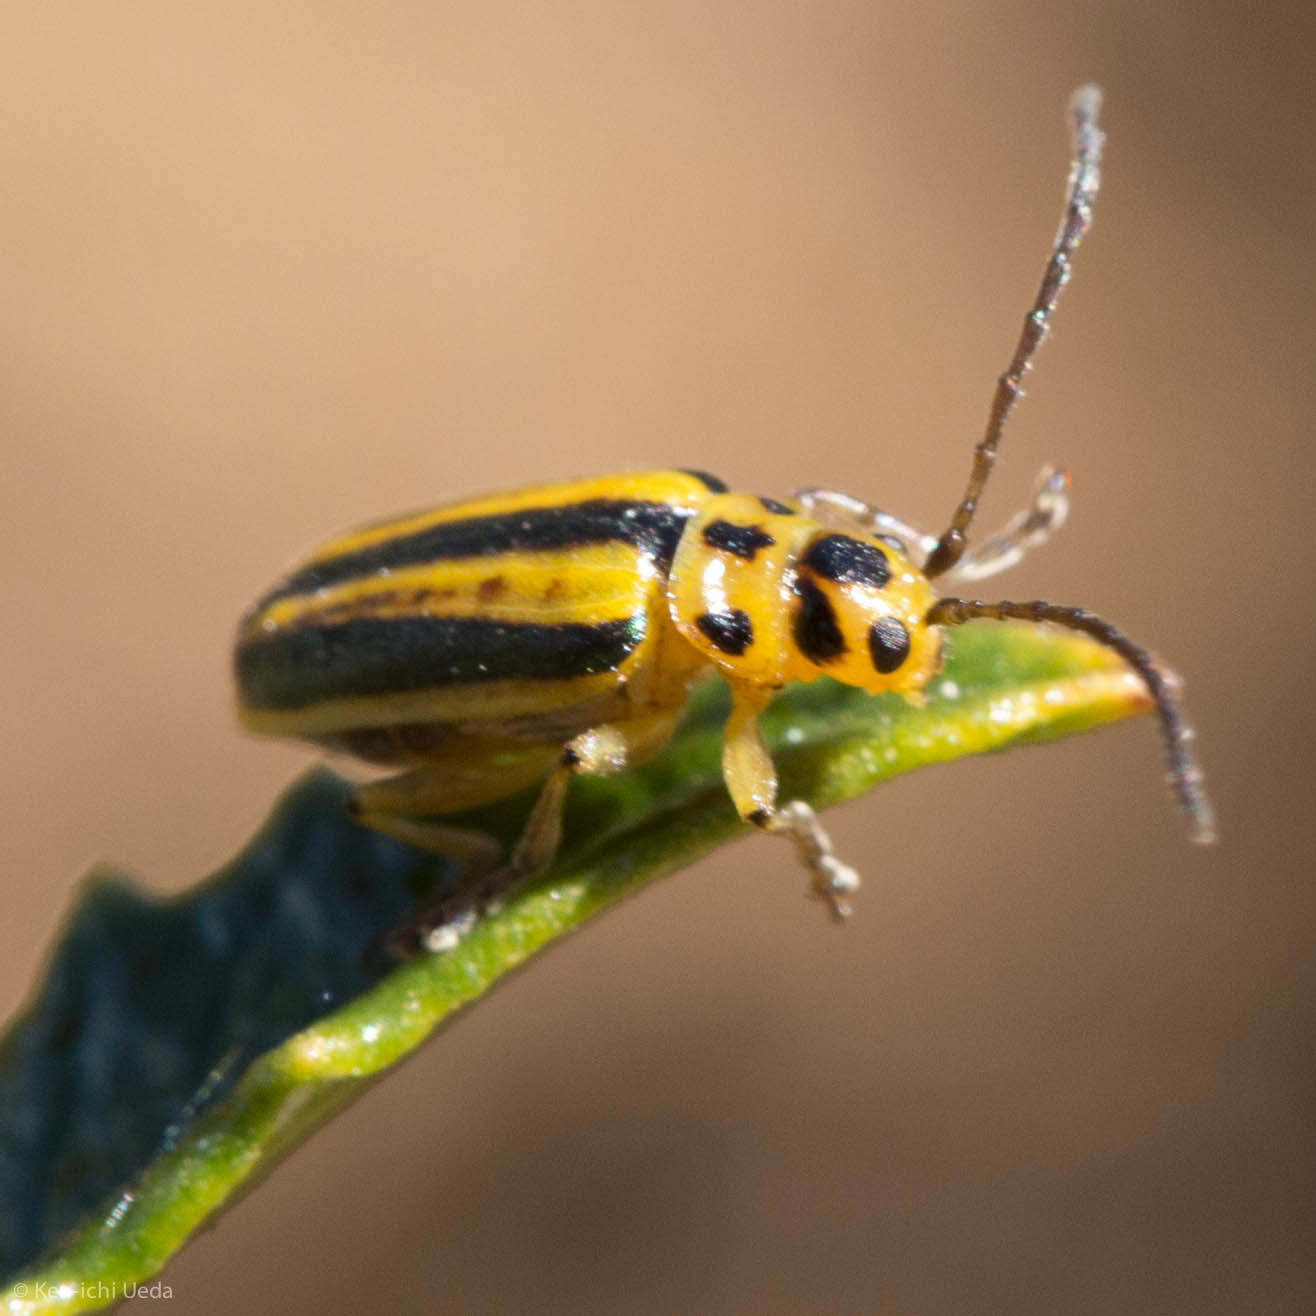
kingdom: Animalia
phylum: Arthropoda
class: Insecta
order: Coleoptera
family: Chrysomelidae
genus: Trirhabda
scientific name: Trirhabda diducta
